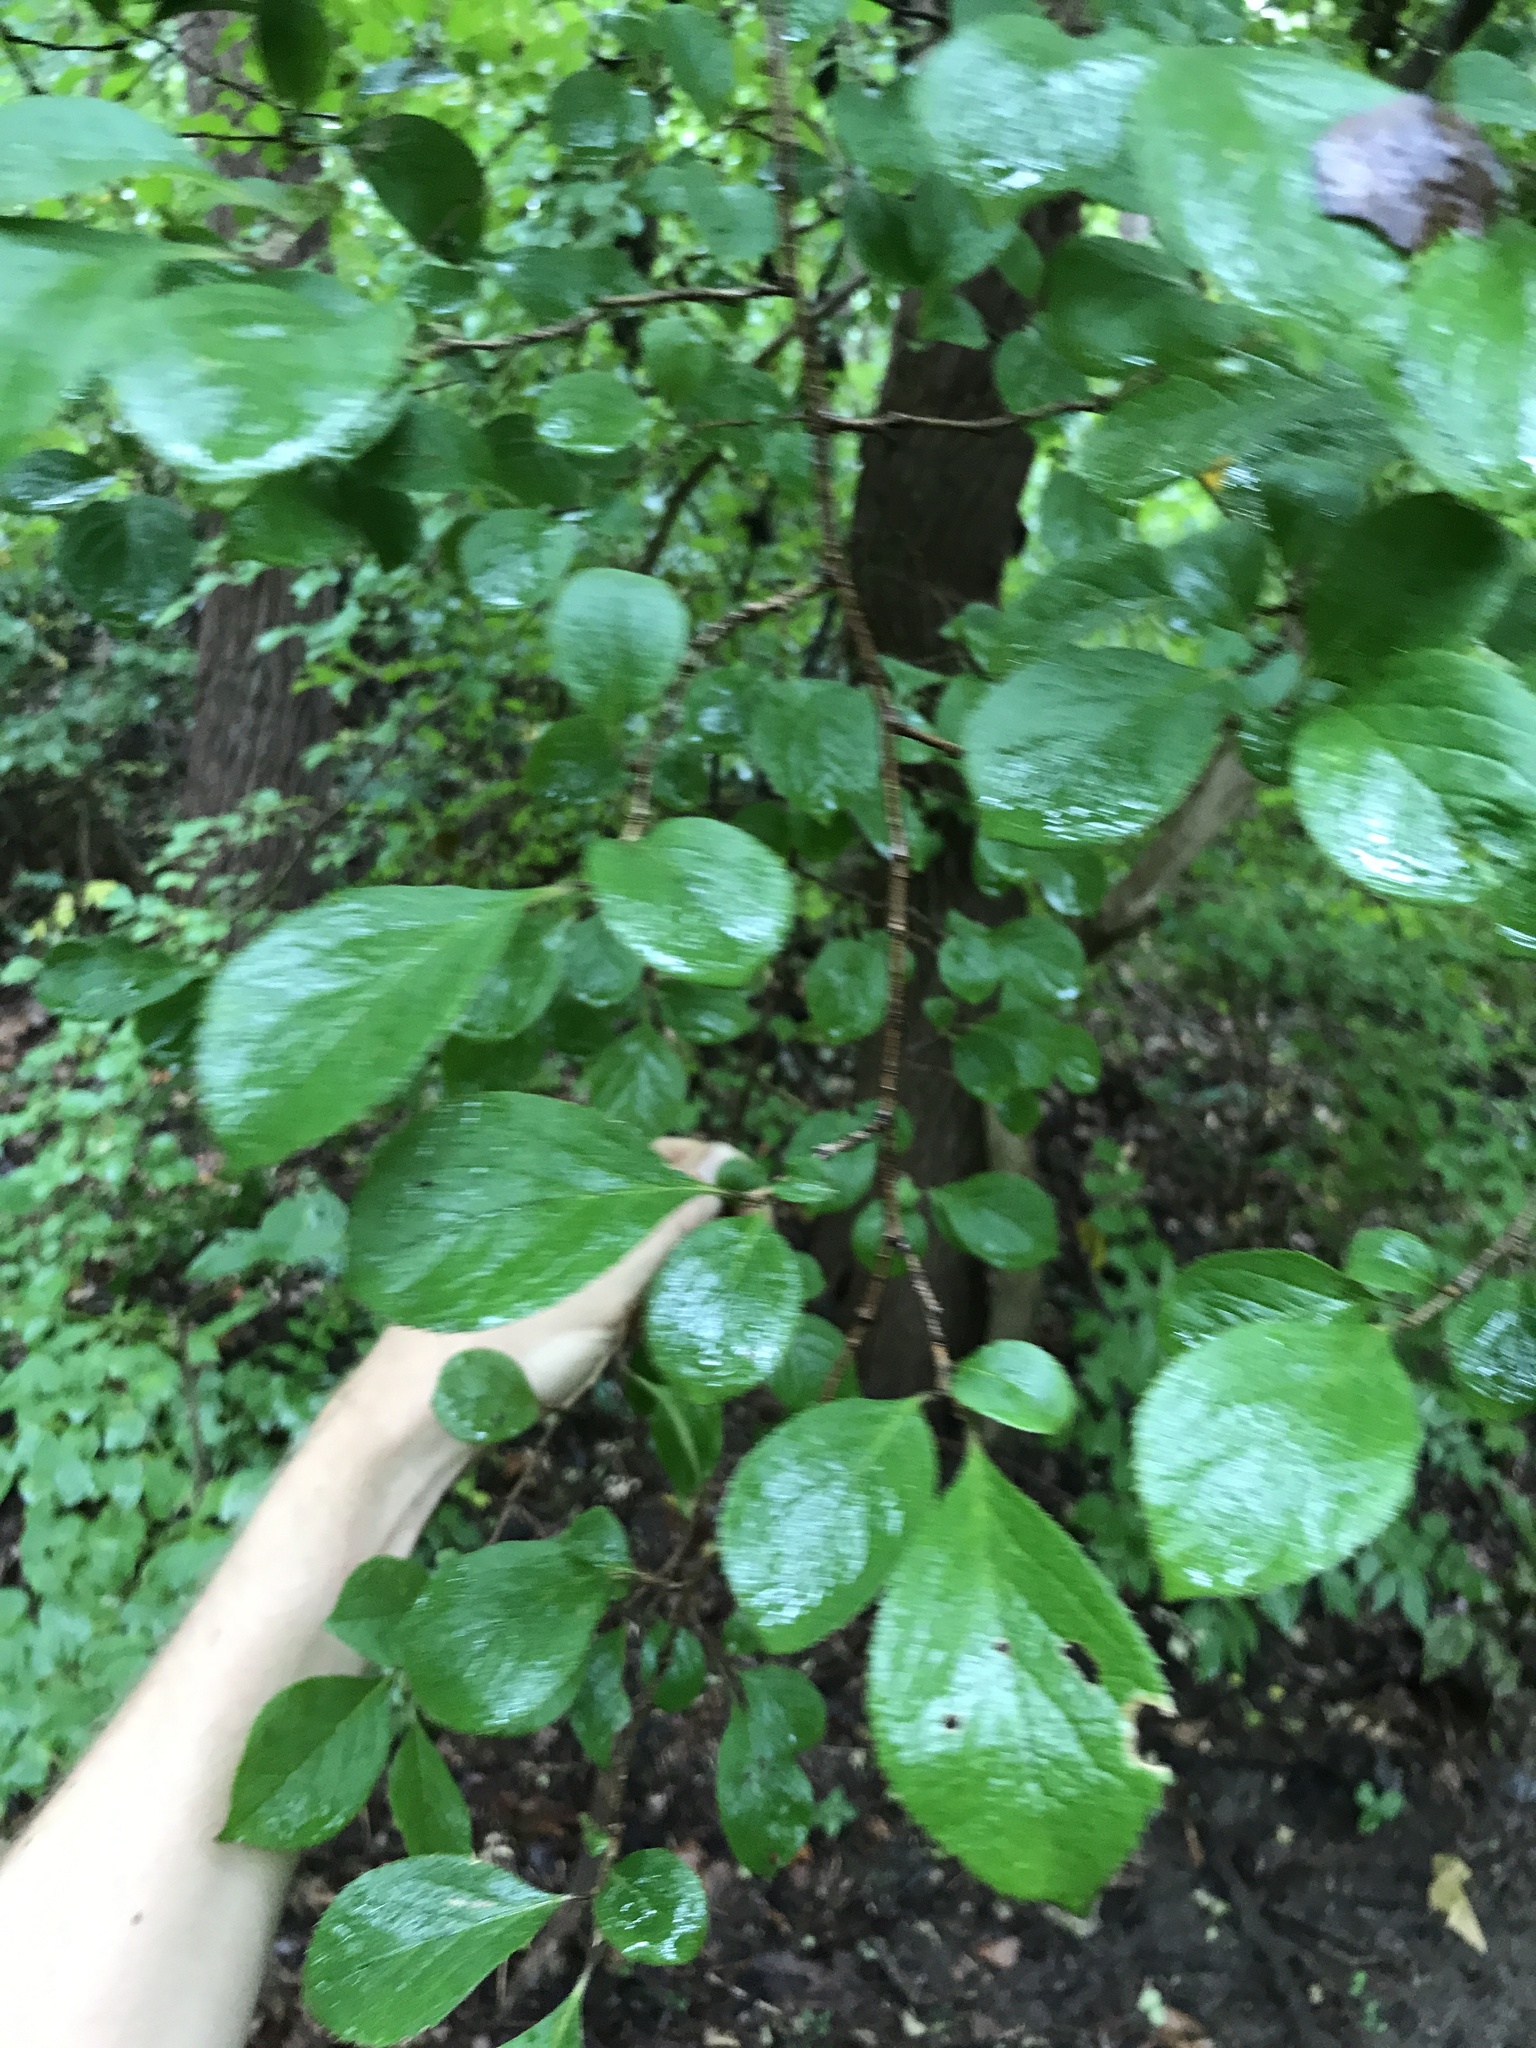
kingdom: Plantae
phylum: Tracheophyta
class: Magnoliopsida
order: Ericales
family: Symplocaceae
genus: Symplocos
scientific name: Symplocos paniculata
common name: Sapphire-berry
